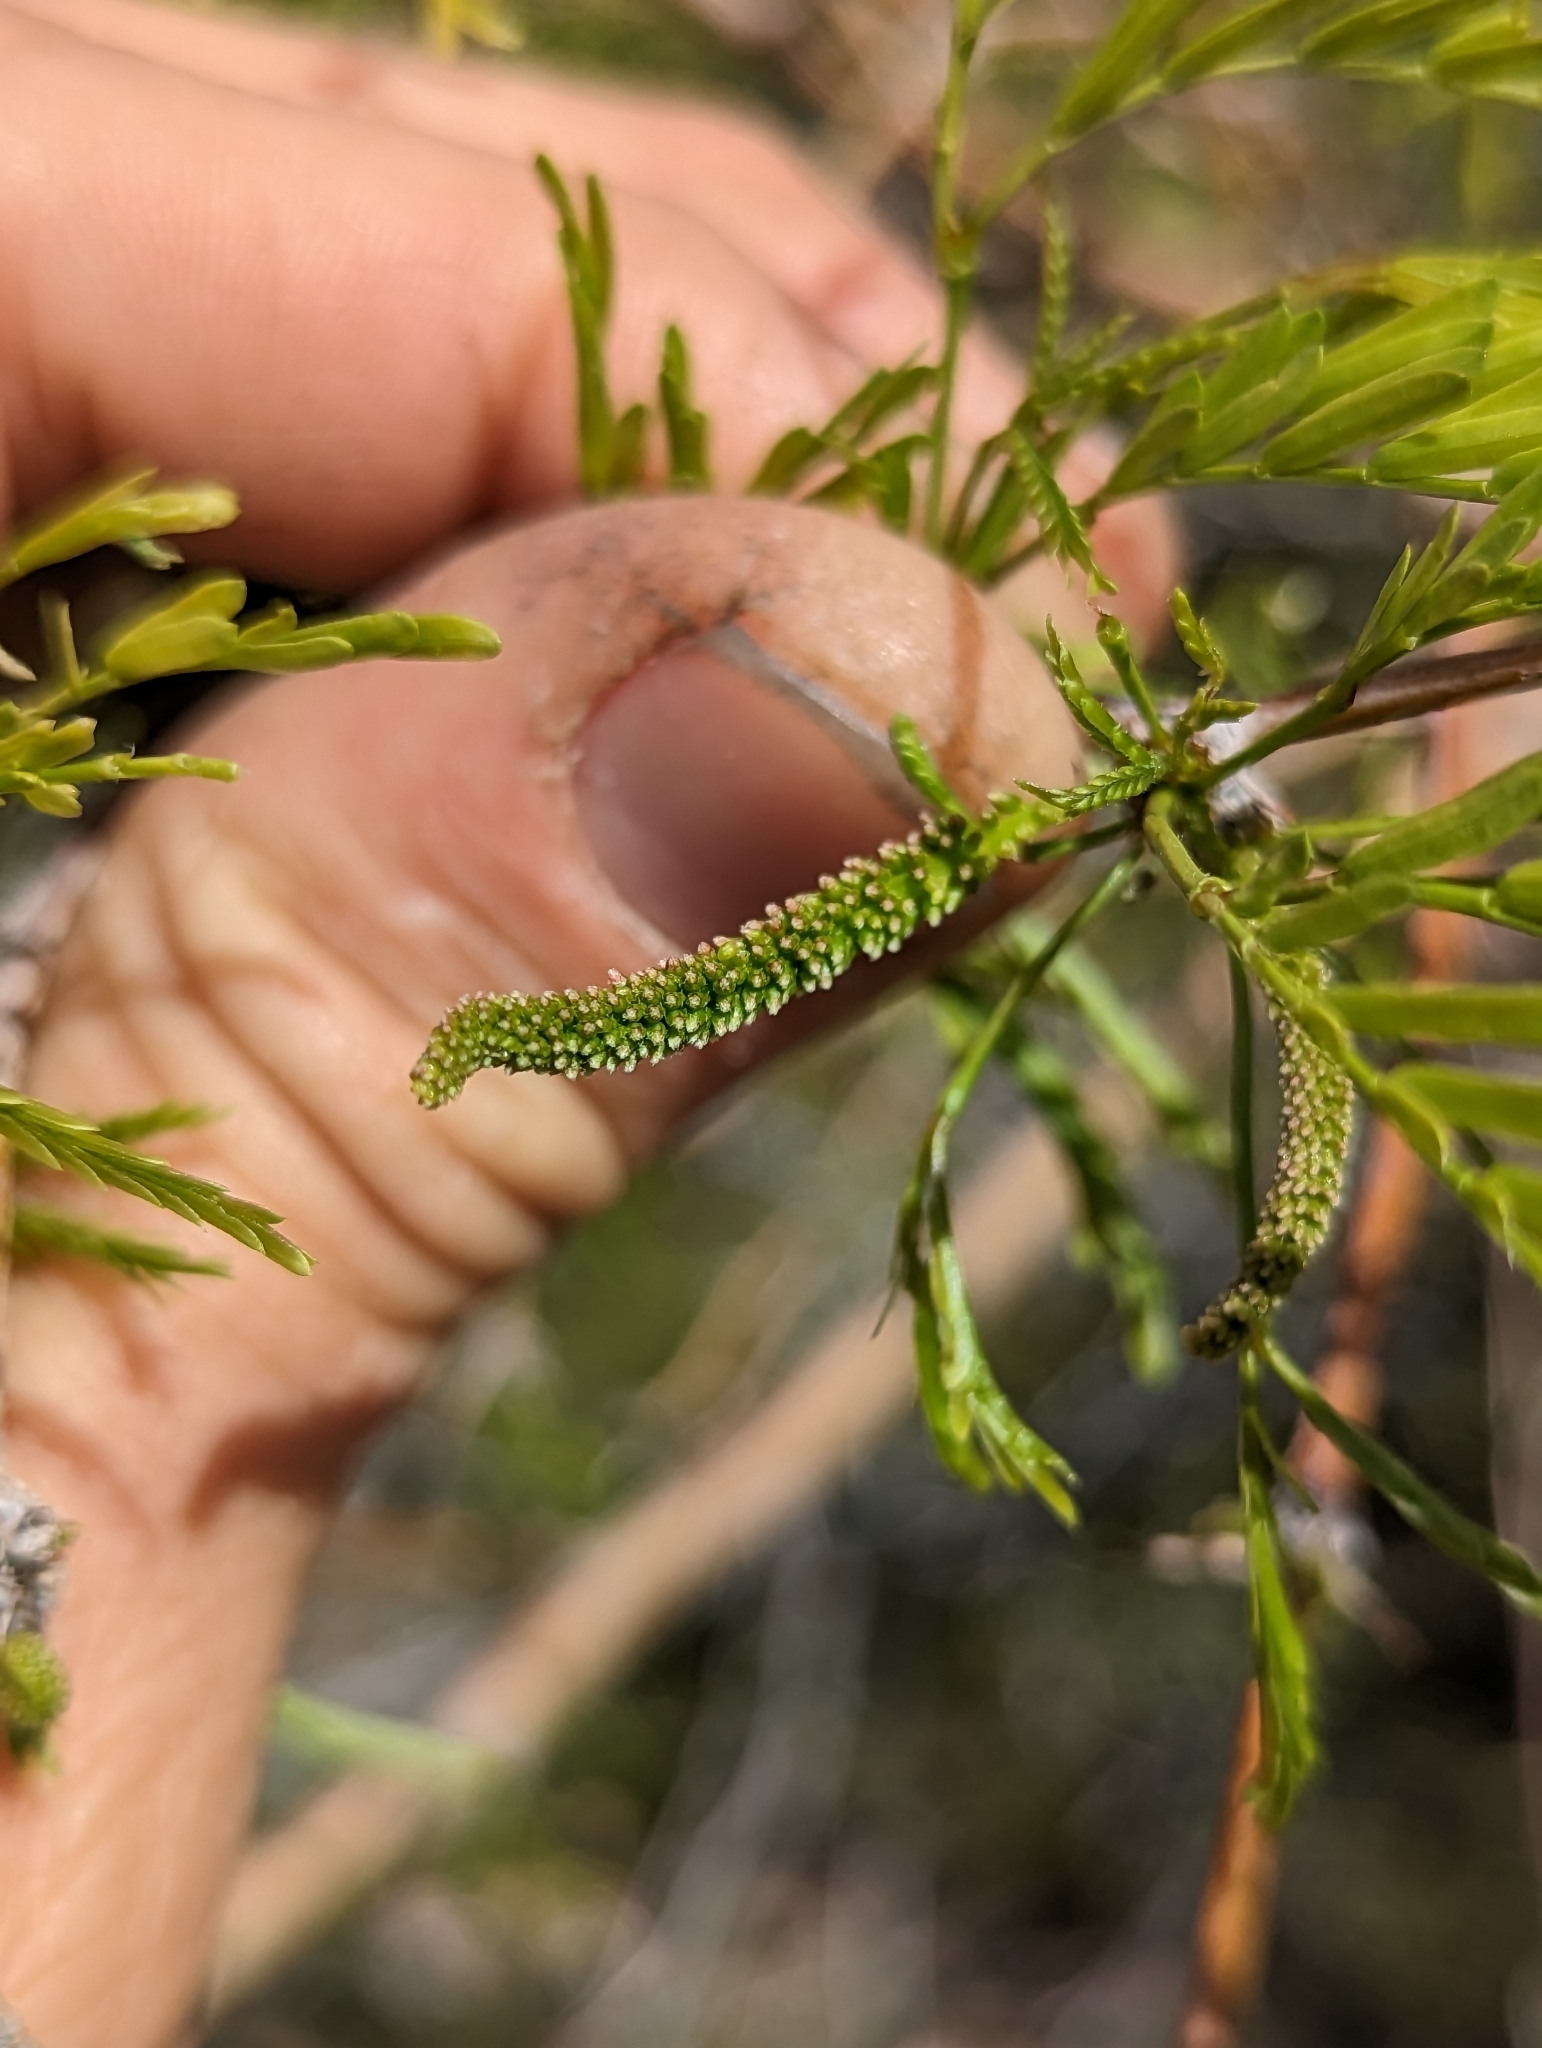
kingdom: Plantae
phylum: Tracheophyta
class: Magnoliopsida
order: Fabales
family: Fabaceae
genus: Prosopis
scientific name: Prosopis pubescens
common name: Screw-bean
